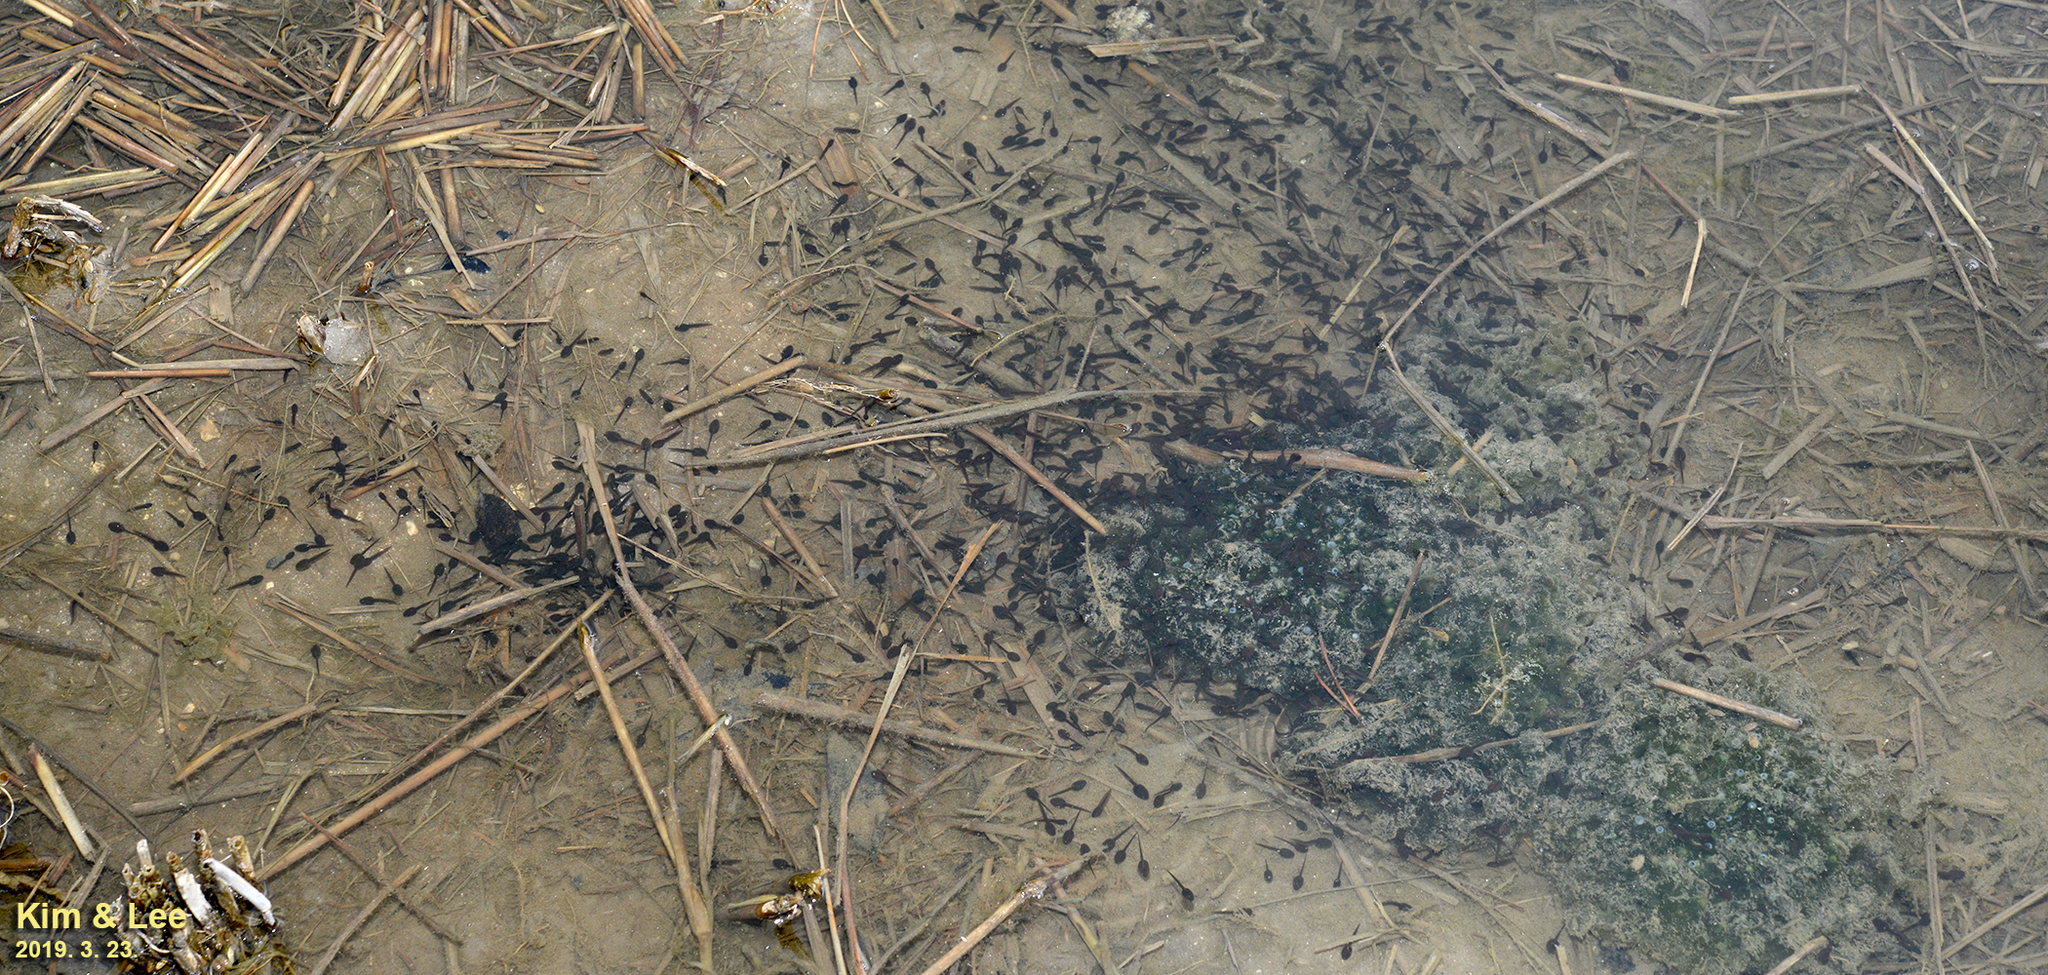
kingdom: Animalia
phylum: Chordata
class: Amphibia
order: Anura
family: Ranidae
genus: Rana
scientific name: Rana uenoi
